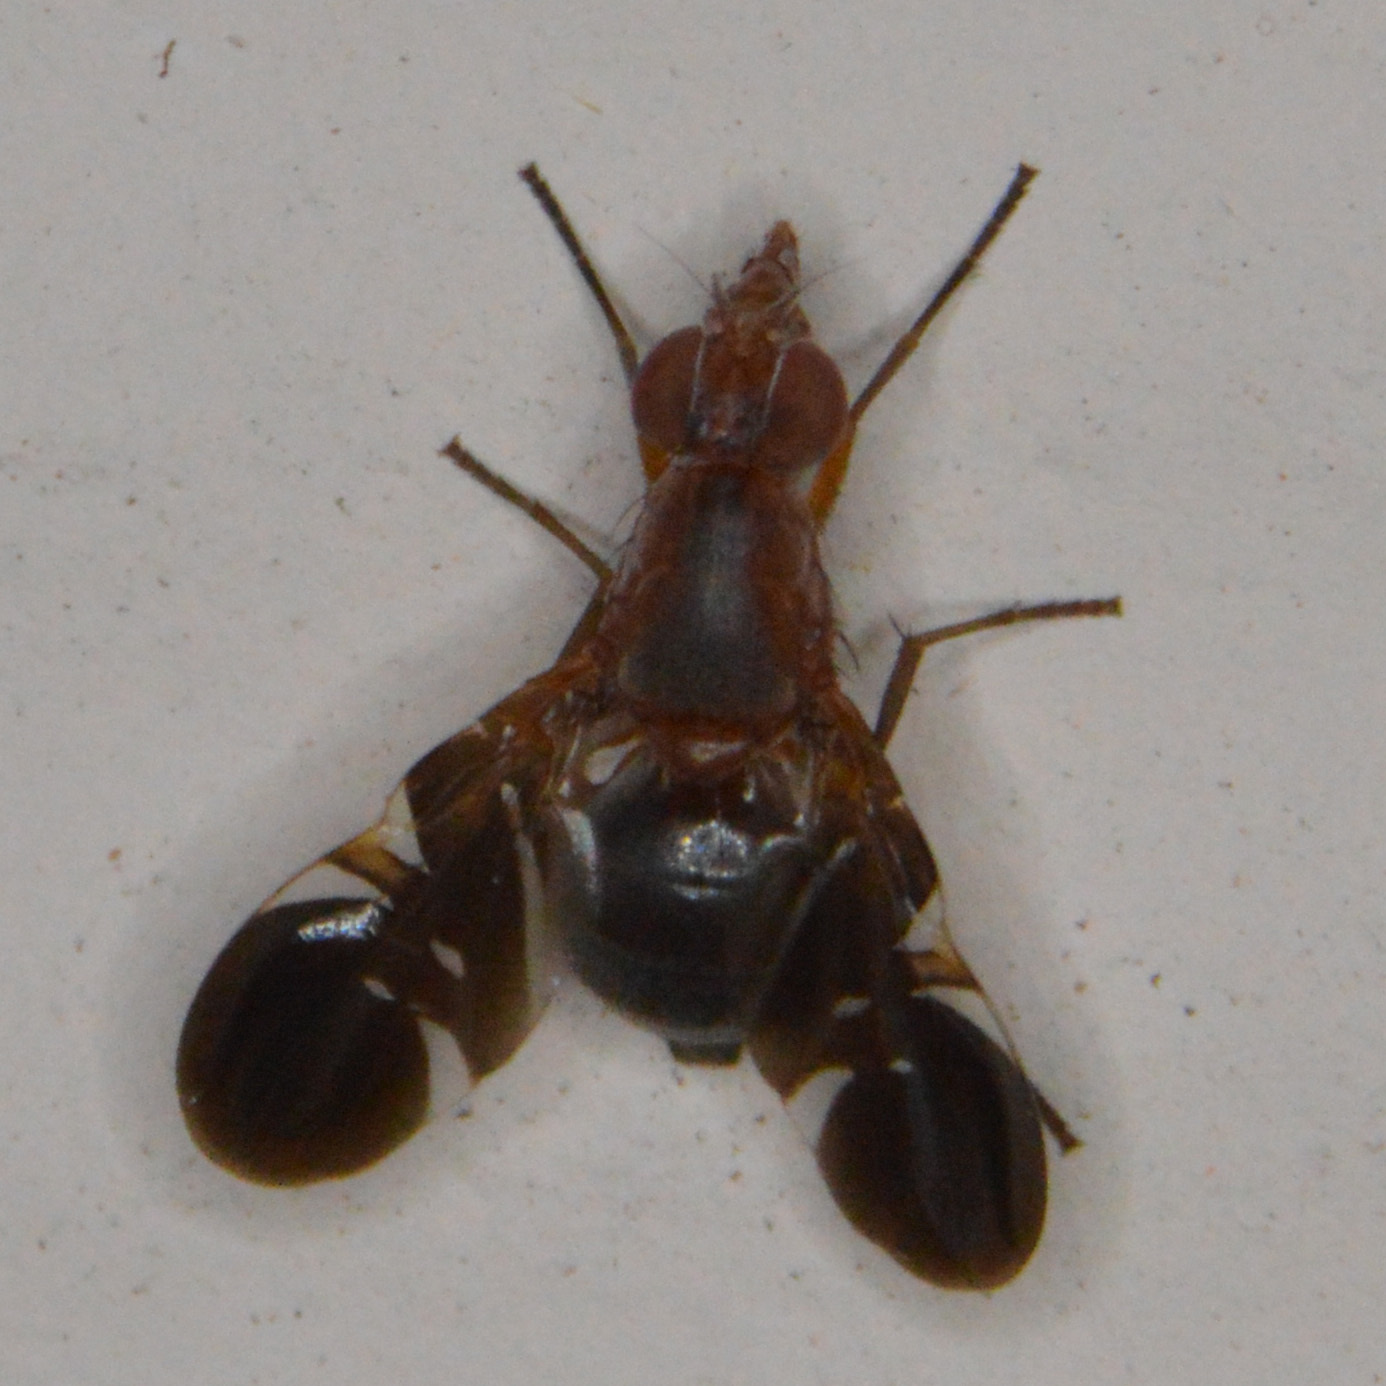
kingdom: Animalia
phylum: Arthropoda
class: Insecta
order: Diptera
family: Ulidiidae
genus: Delphinia
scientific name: Delphinia picta
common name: Common picture-winged fly
